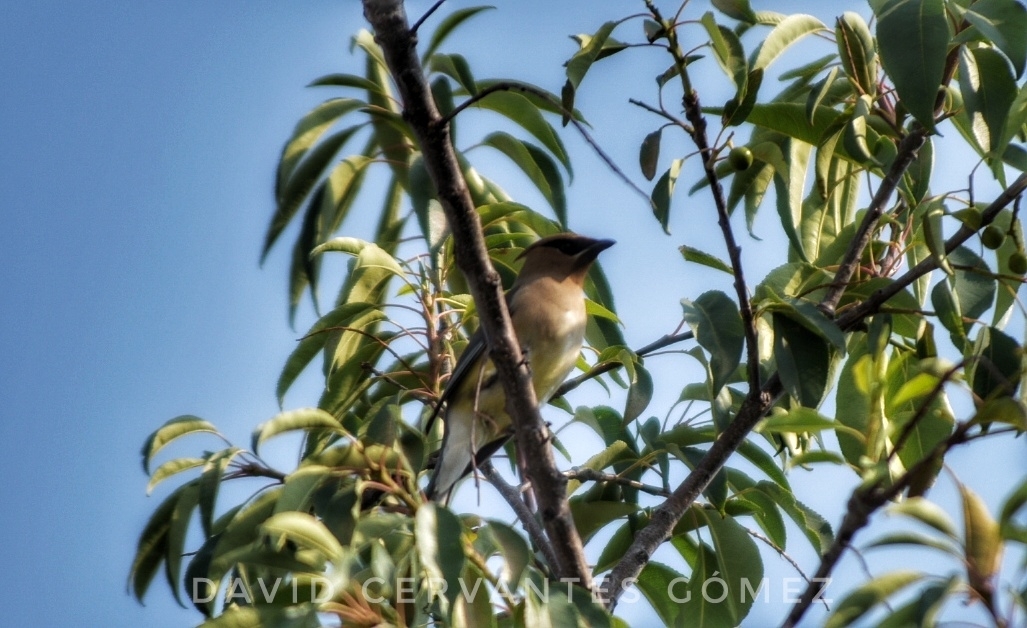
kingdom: Animalia
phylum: Chordata
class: Aves
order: Passeriformes
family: Bombycillidae
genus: Bombycilla
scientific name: Bombycilla cedrorum
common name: Cedar waxwing
